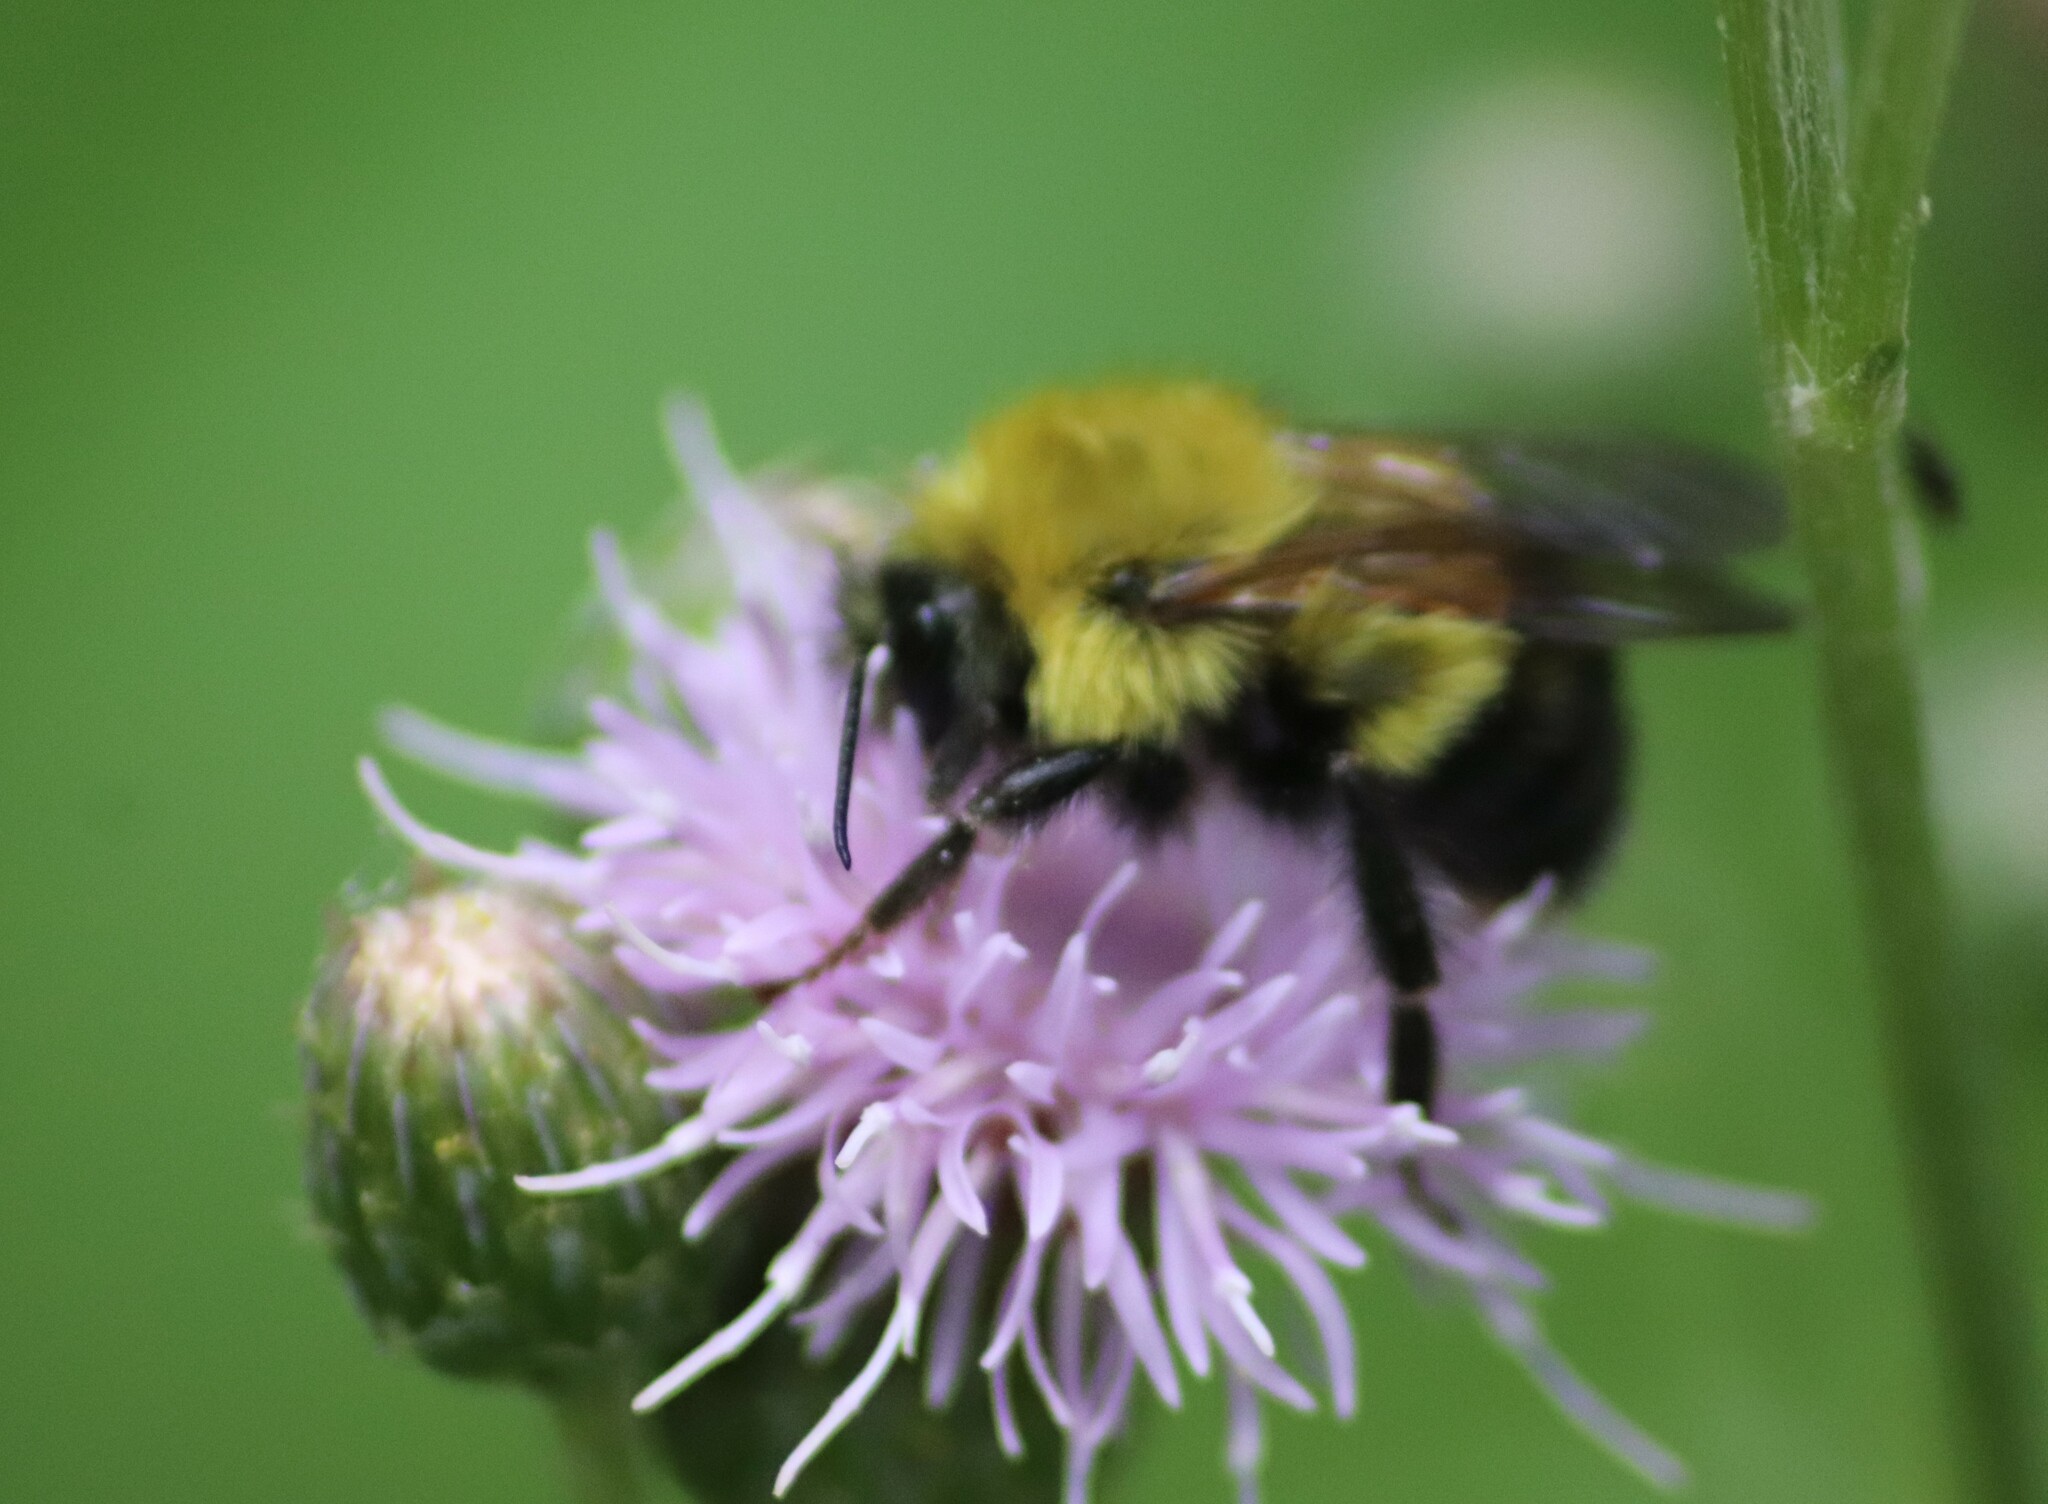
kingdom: Animalia
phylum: Arthropoda
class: Insecta
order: Hymenoptera
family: Apidae
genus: Bombus
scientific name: Bombus perplexus
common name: Confusing bumble bee
